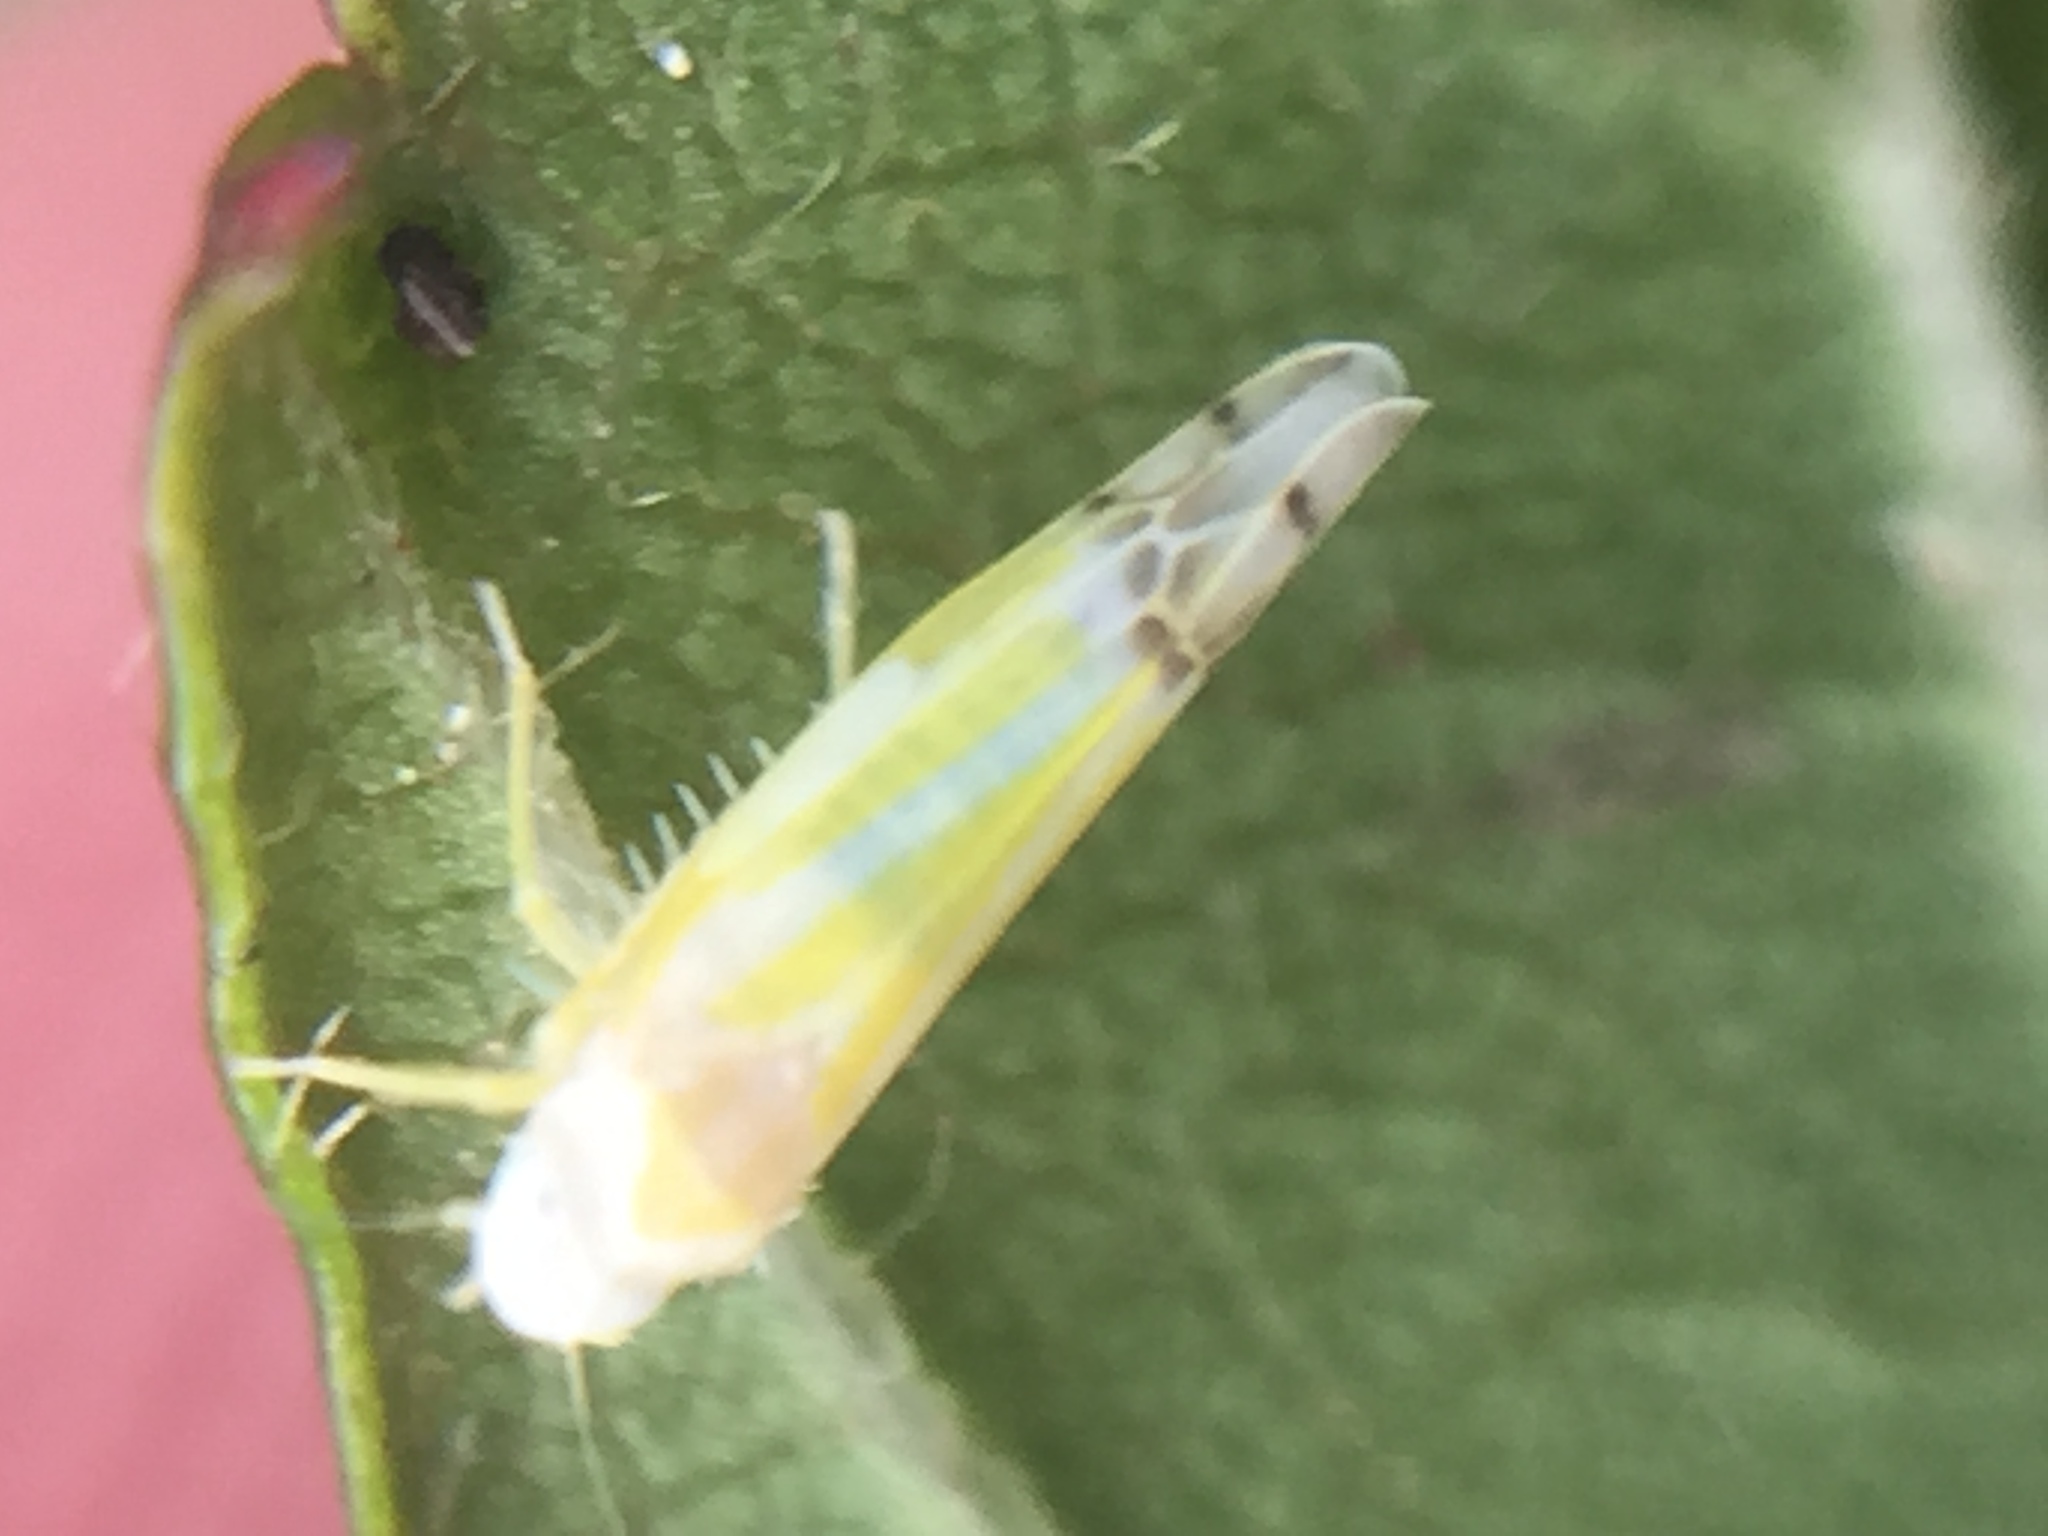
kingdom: Animalia
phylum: Arthropoda
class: Insecta
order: Hemiptera
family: Cicadellidae
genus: Ribautiana
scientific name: Ribautiana tenerrima
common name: Bramble leafhopper
